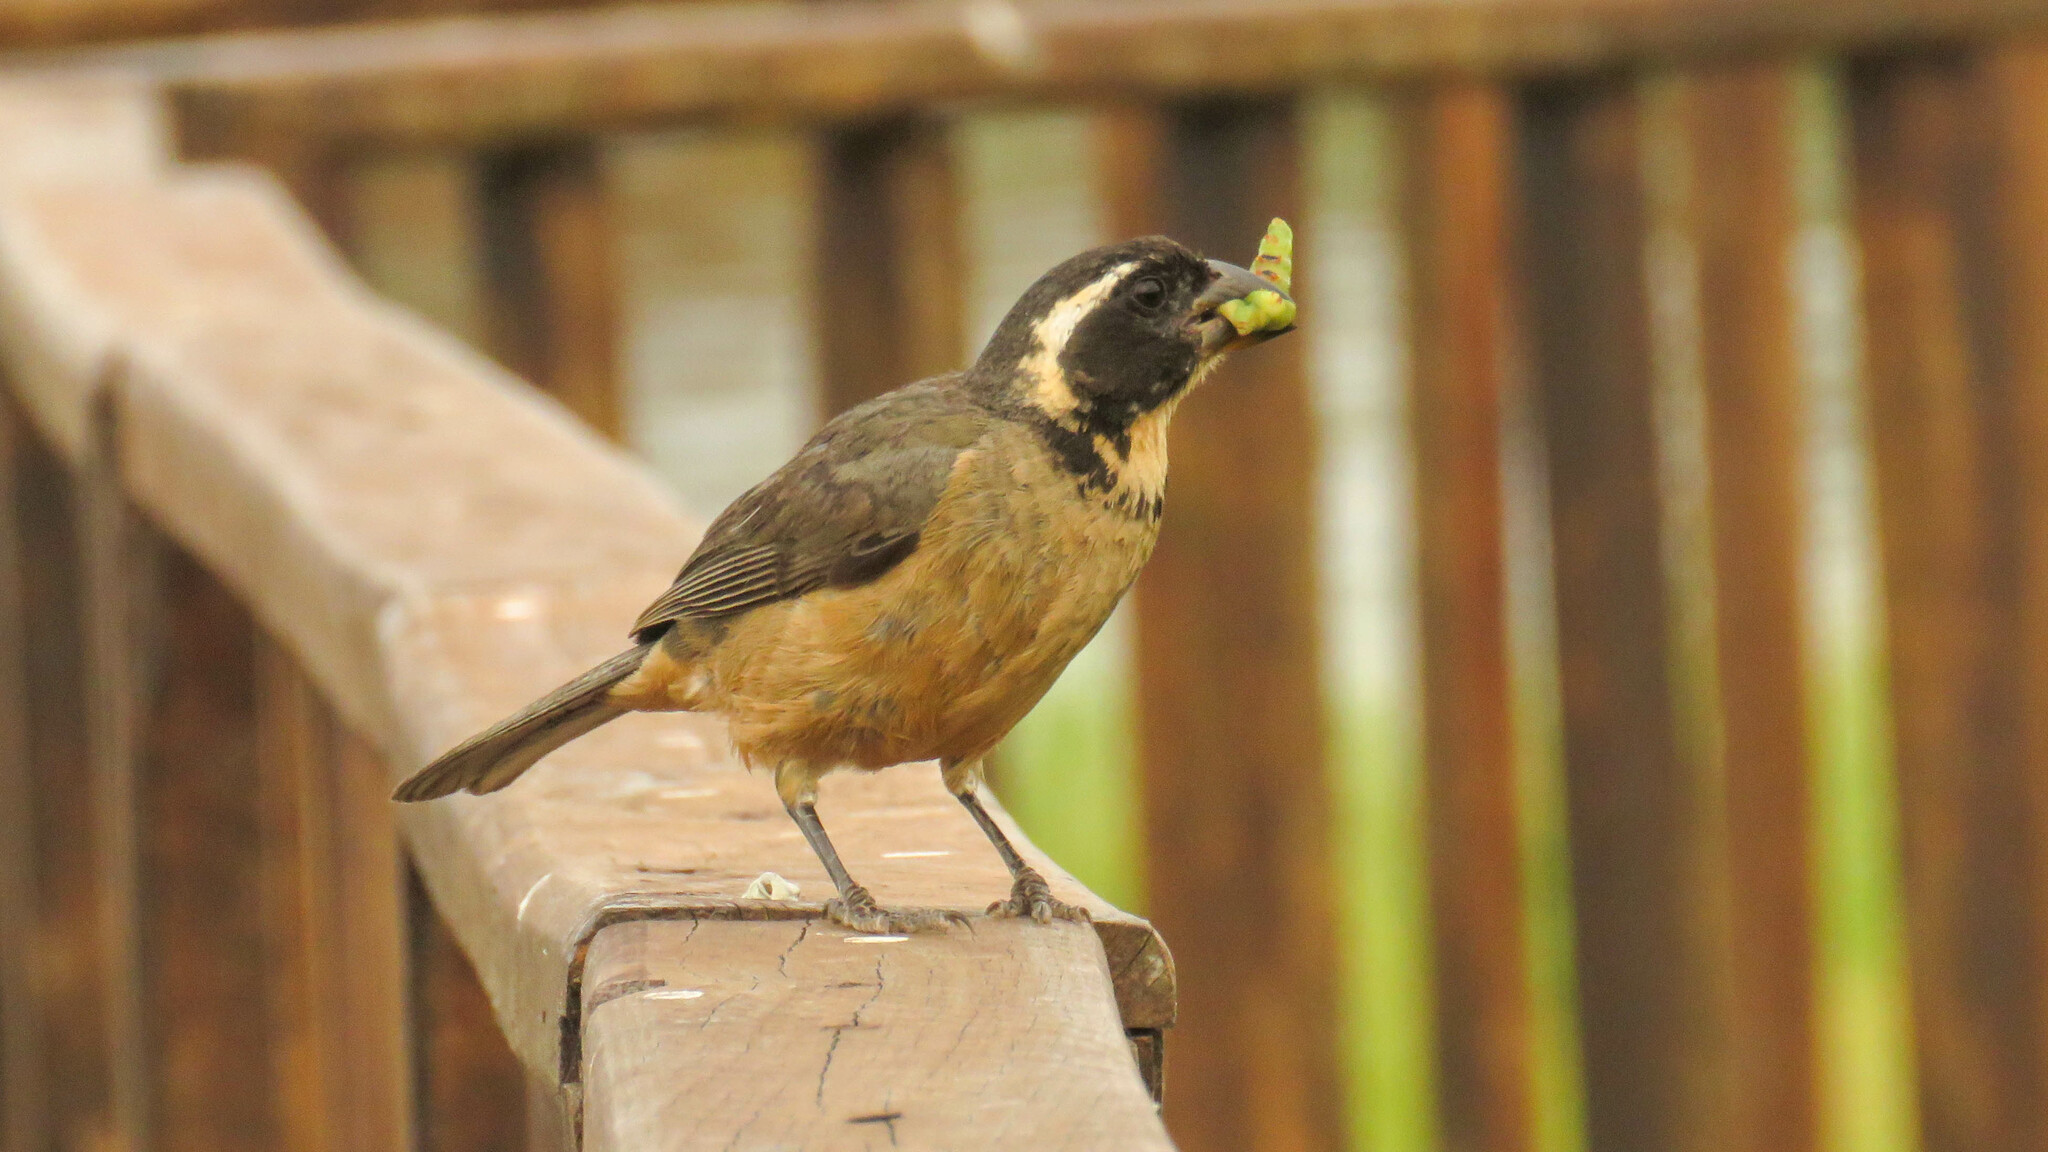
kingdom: Animalia
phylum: Chordata
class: Aves
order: Passeriformes
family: Thraupidae
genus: Saltator
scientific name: Saltator aurantiirostris
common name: Golden-billed saltator
